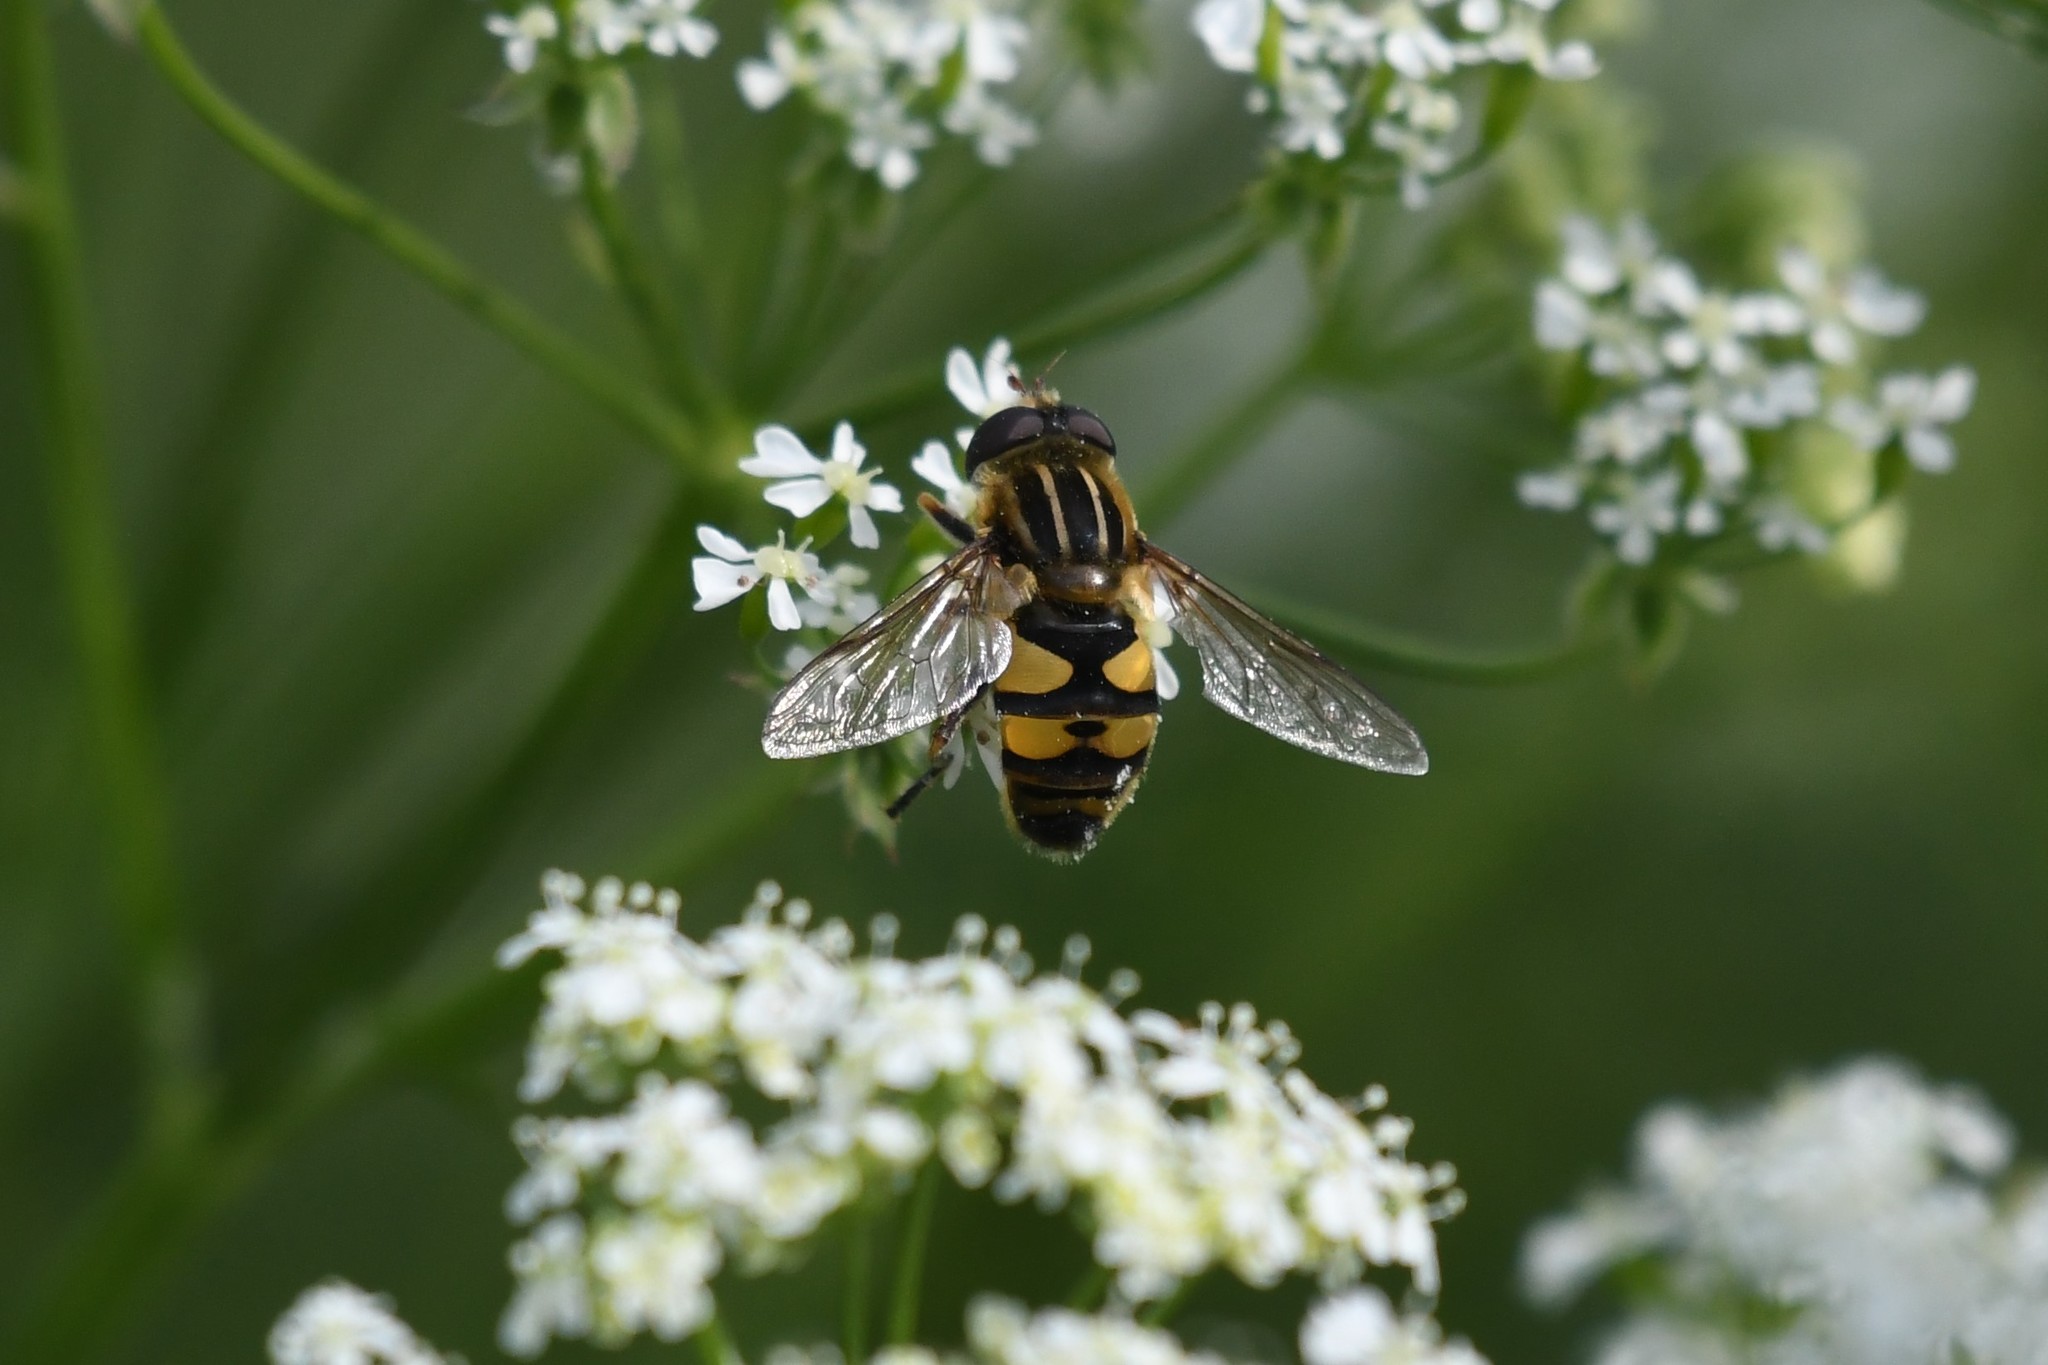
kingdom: Animalia
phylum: Arthropoda
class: Insecta
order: Diptera
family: Syrphidae
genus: Helophilus
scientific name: Helophilus fasciatus
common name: Narrow-headed marsh fly
